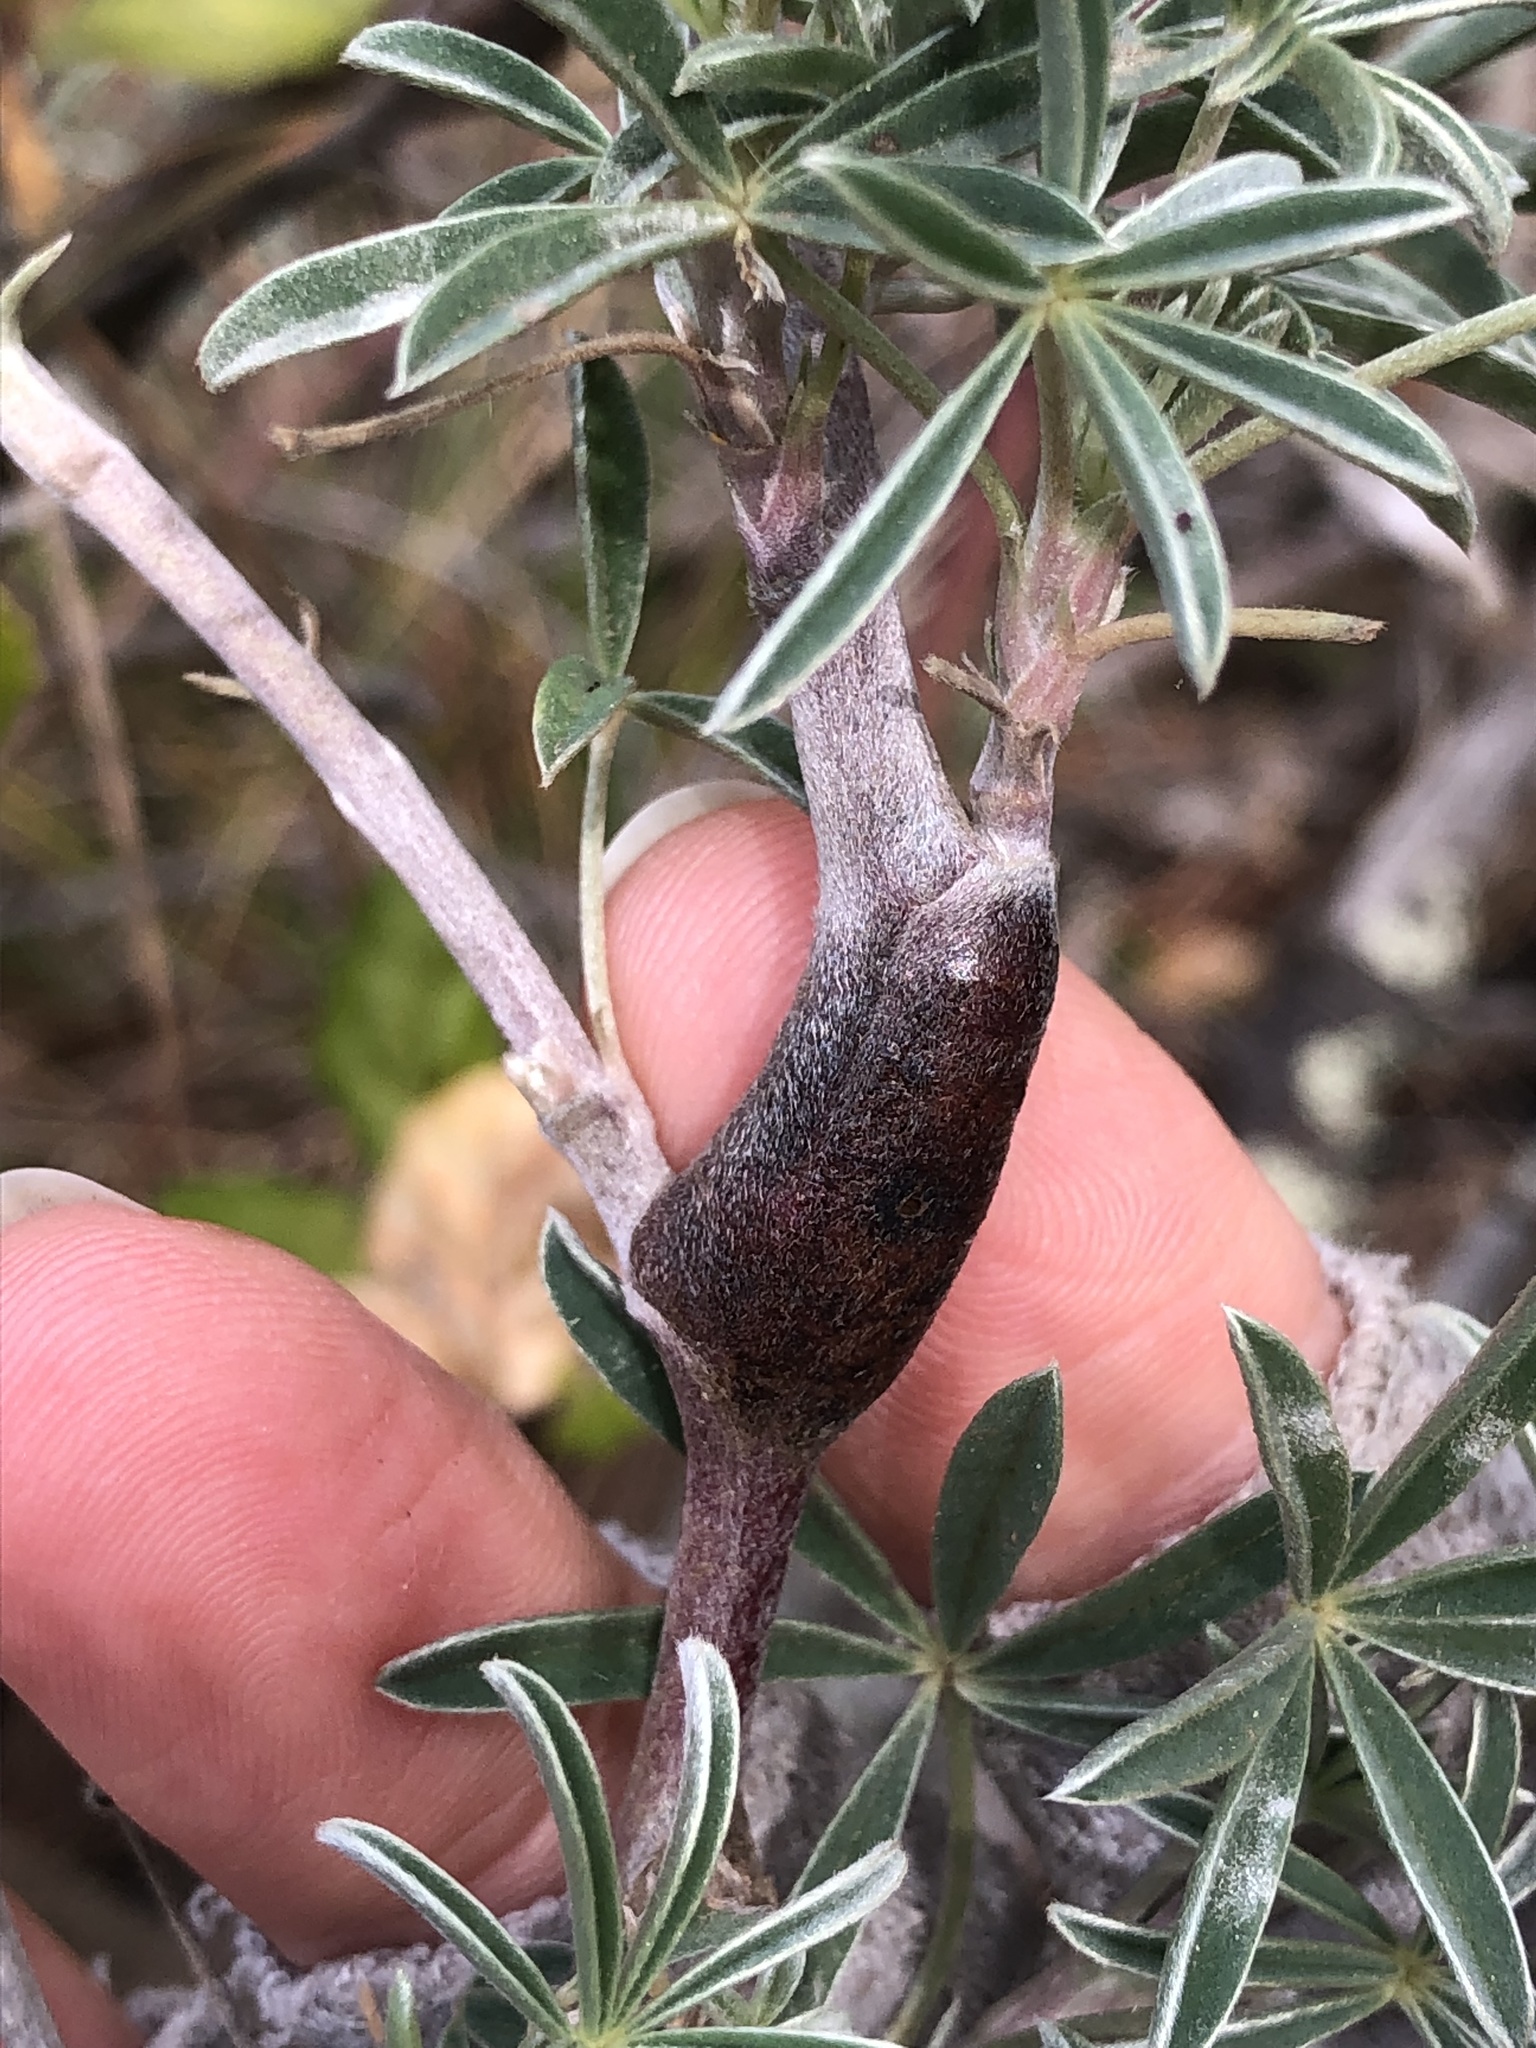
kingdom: Animalia
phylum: Arthropoda
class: Insecta
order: Diptera
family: Cecidomyiidae
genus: Neolasioptera
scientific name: Neolasioptera lupini
